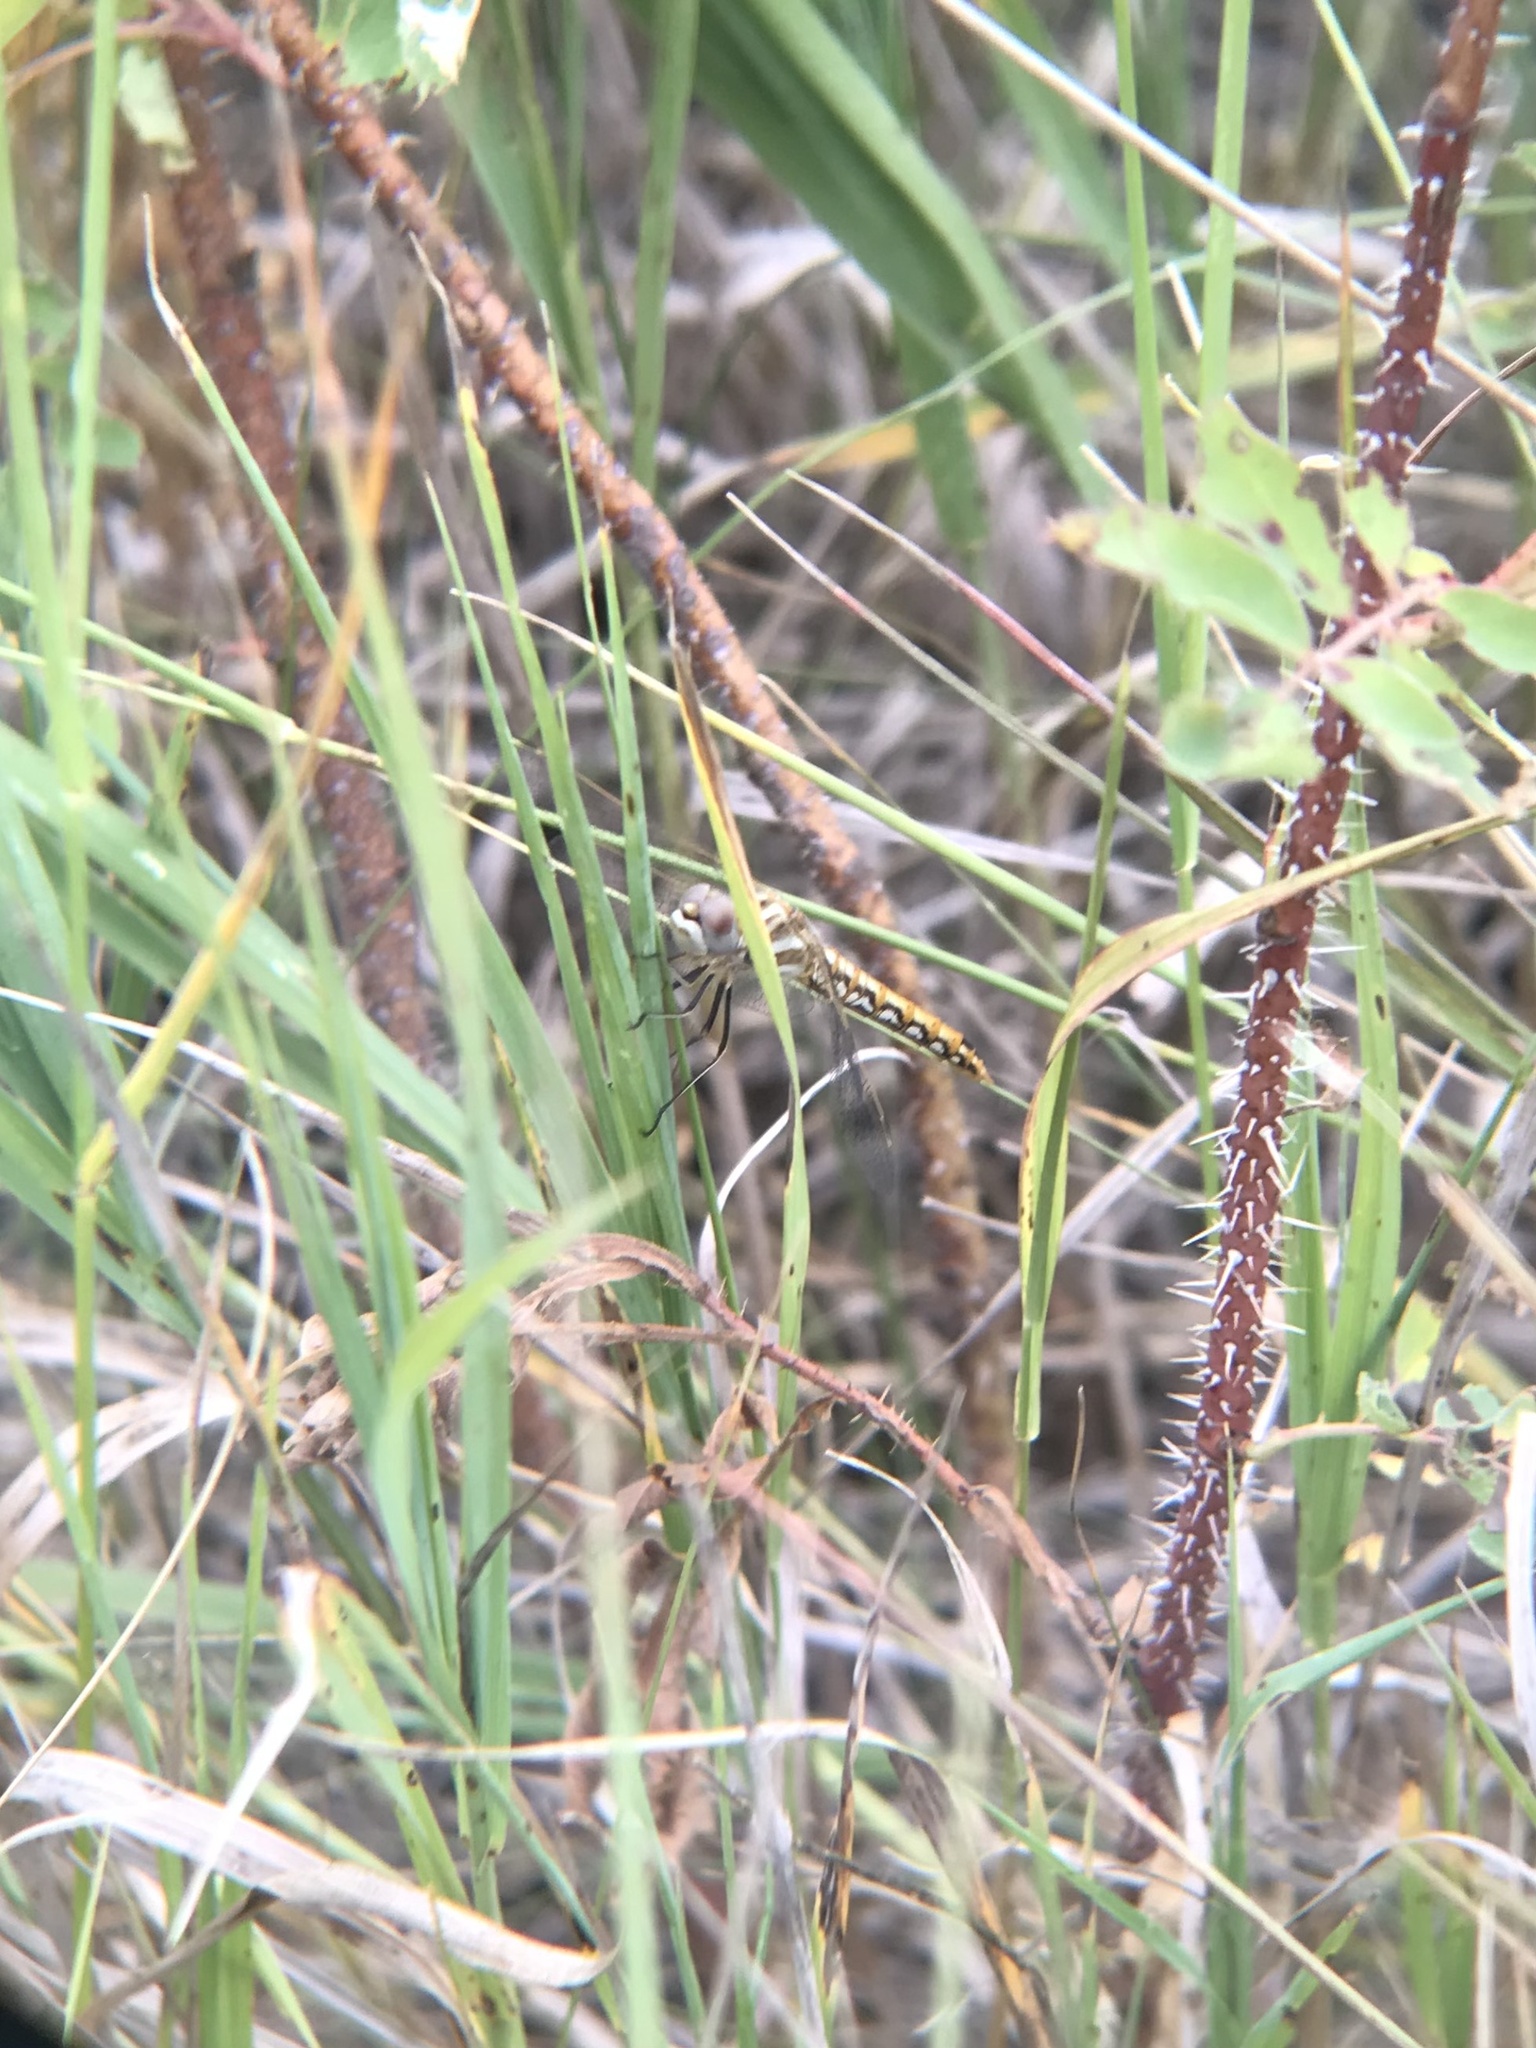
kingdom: Animalia
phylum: Arthropoda
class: Insecta
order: Odonata
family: Libellulidae
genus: Sympetrum
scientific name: Sympetrum corruptum
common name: Variegated meadowhawk
